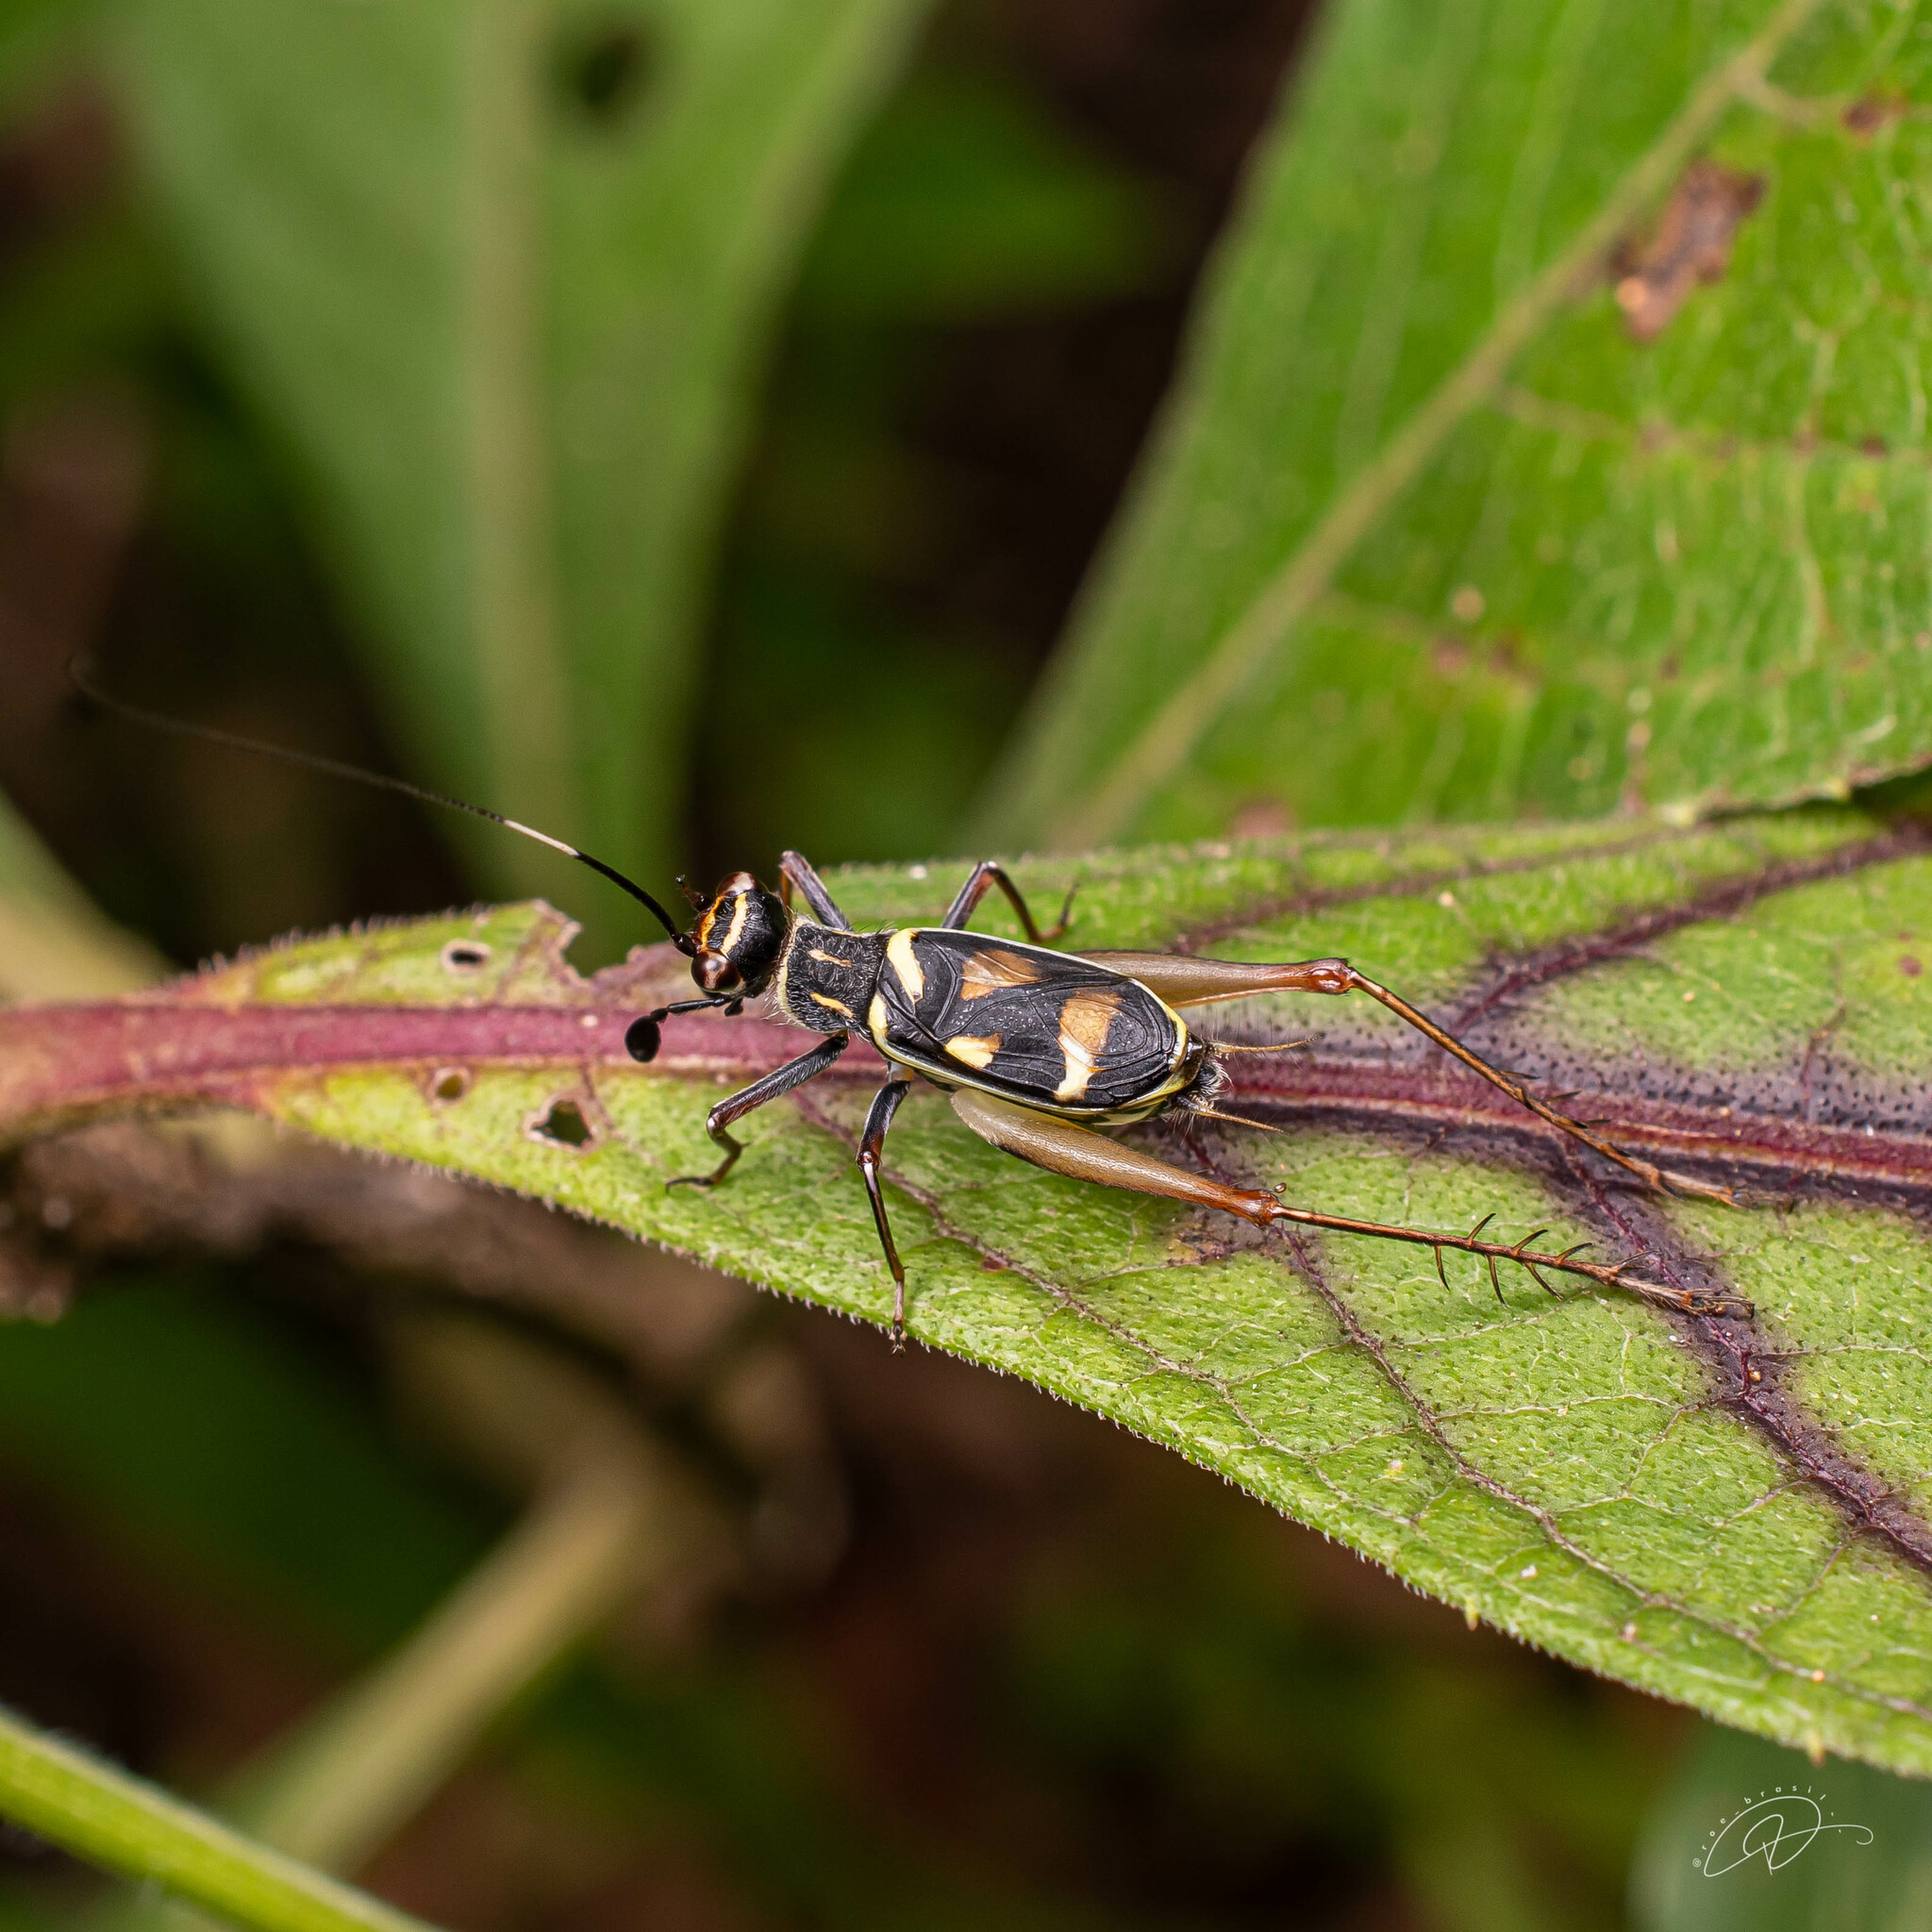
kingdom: Animalia
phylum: Arthropoda
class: Insecta
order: Orthoptera
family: Trigonidiidae
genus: Phylloscyrtus
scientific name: Phylloscyrtus amoenus
